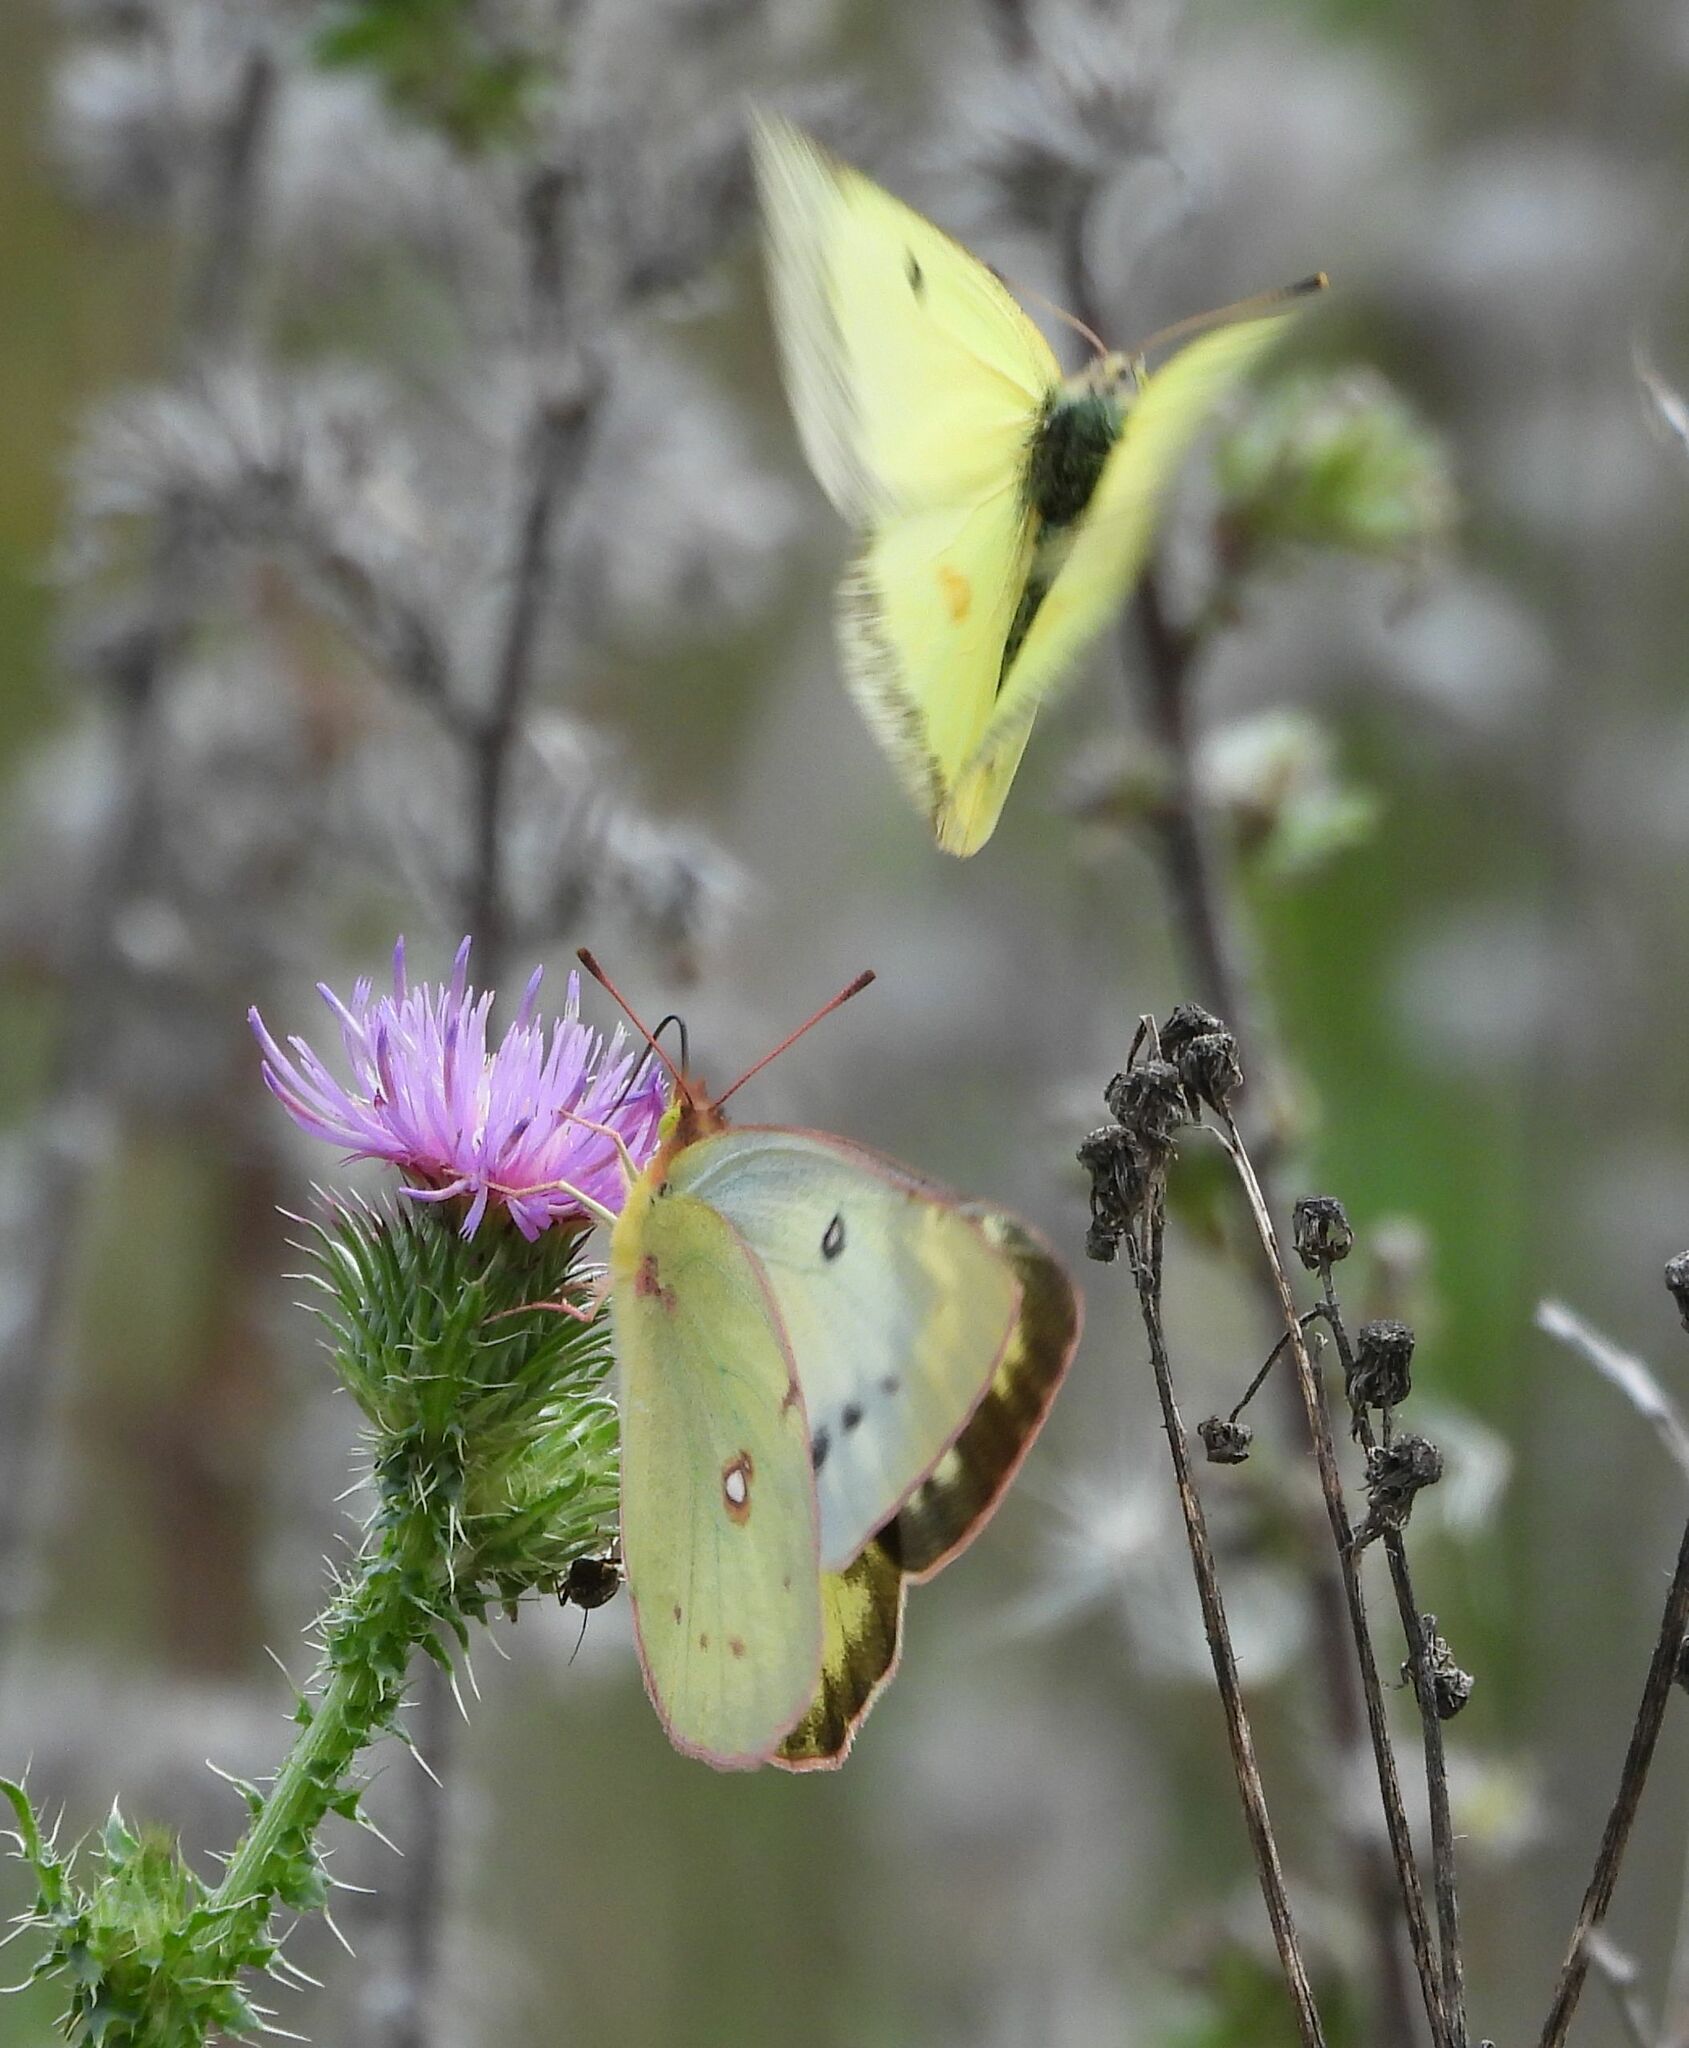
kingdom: Animalia
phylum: Arthropoda
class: Insecta
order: Lepidoptera
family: Pieridae
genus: Colias
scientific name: Colias philodice
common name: Clouded sulphur
